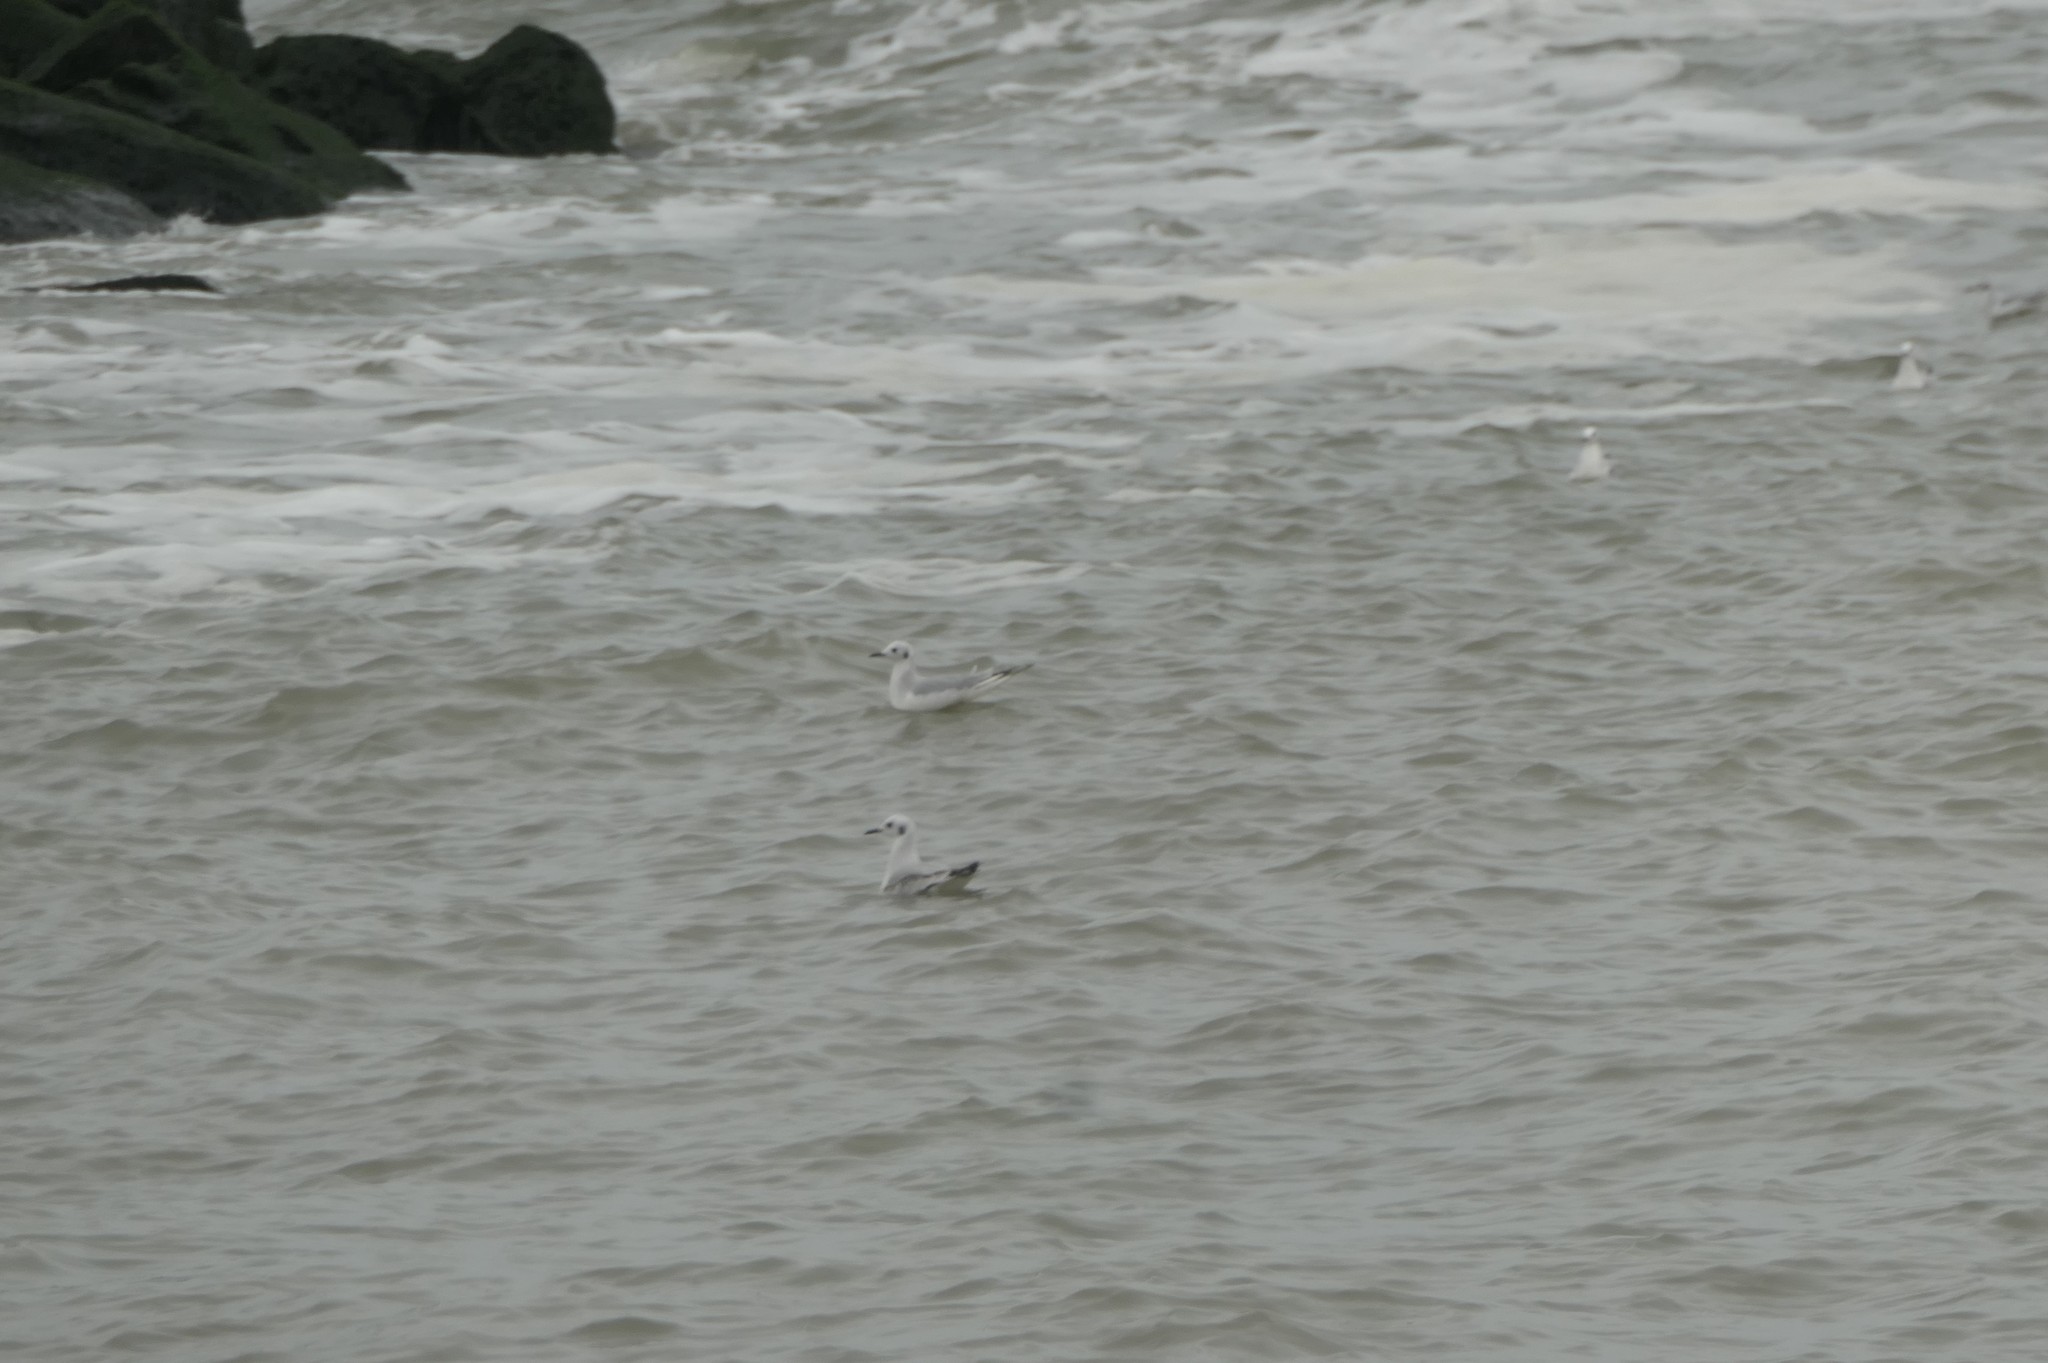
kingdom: Animalia
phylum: Chordata
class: Aves
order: Charadriiformes
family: Laridae
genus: Chroicocephalus
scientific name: Chroicocephalus philadelphia
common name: Bonaparte's gull
